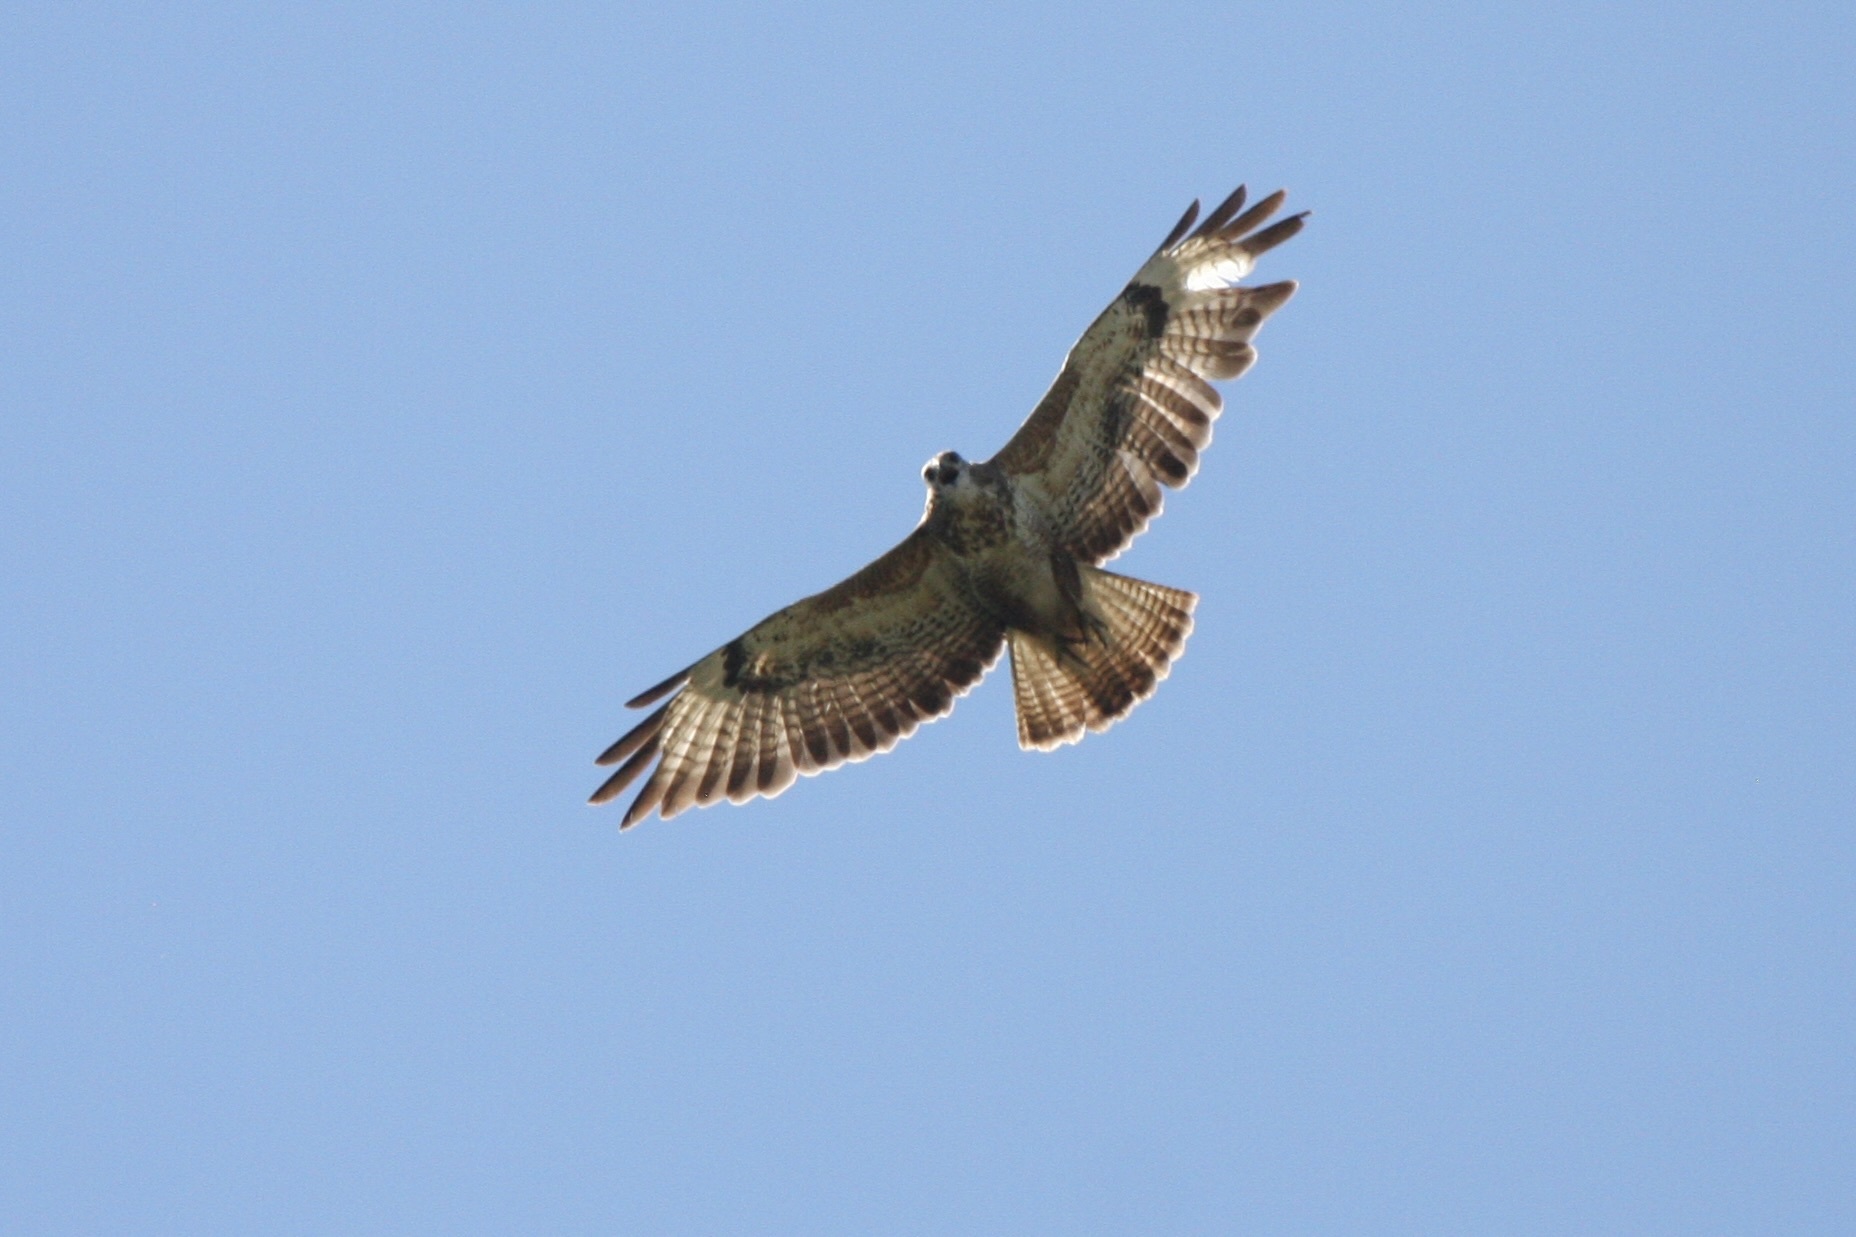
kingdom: Animalia
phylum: Chordata
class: Aves
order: Accipitriformes
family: Accipitridae
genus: Buteo
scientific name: Buteo buteo
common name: Common buzzard
